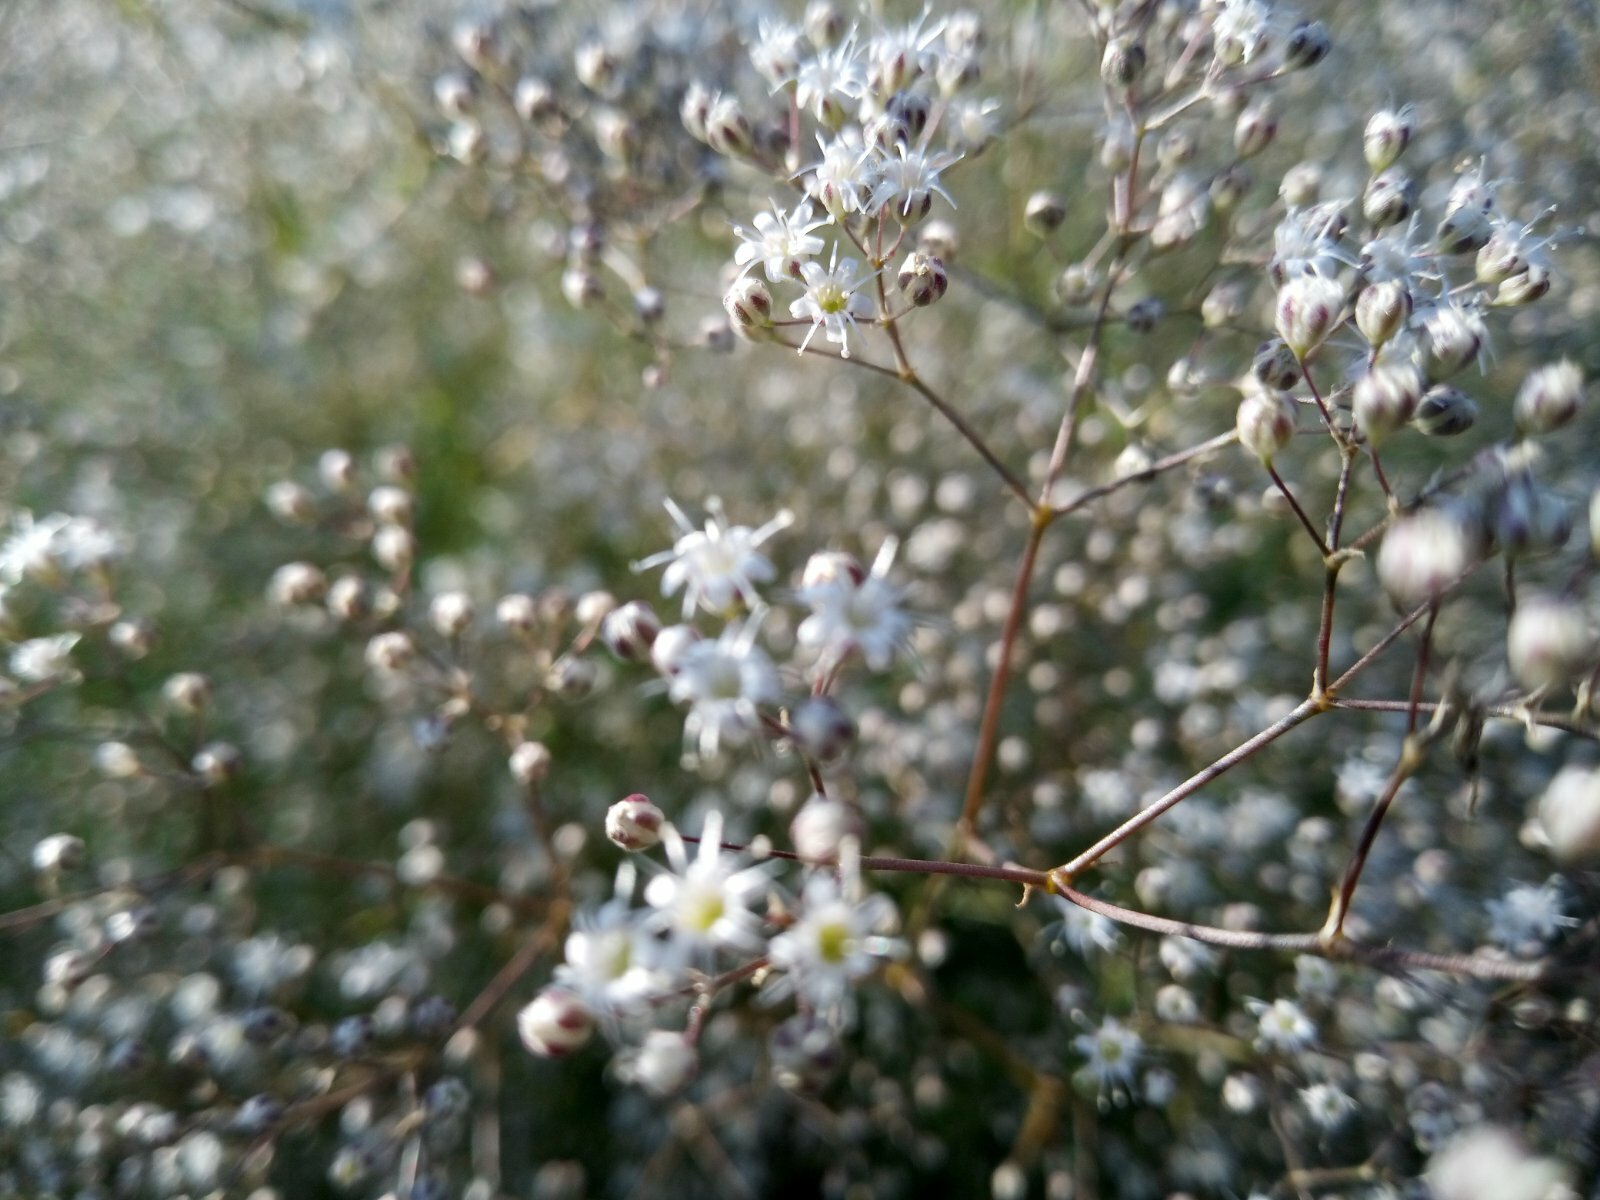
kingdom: Plantae
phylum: Tracheophyta
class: Magnoliopsida
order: Caryophyllales
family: Caryophyllaceae
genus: Gypsophila
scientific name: Gypsophila paniculata
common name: Baby's-breath
